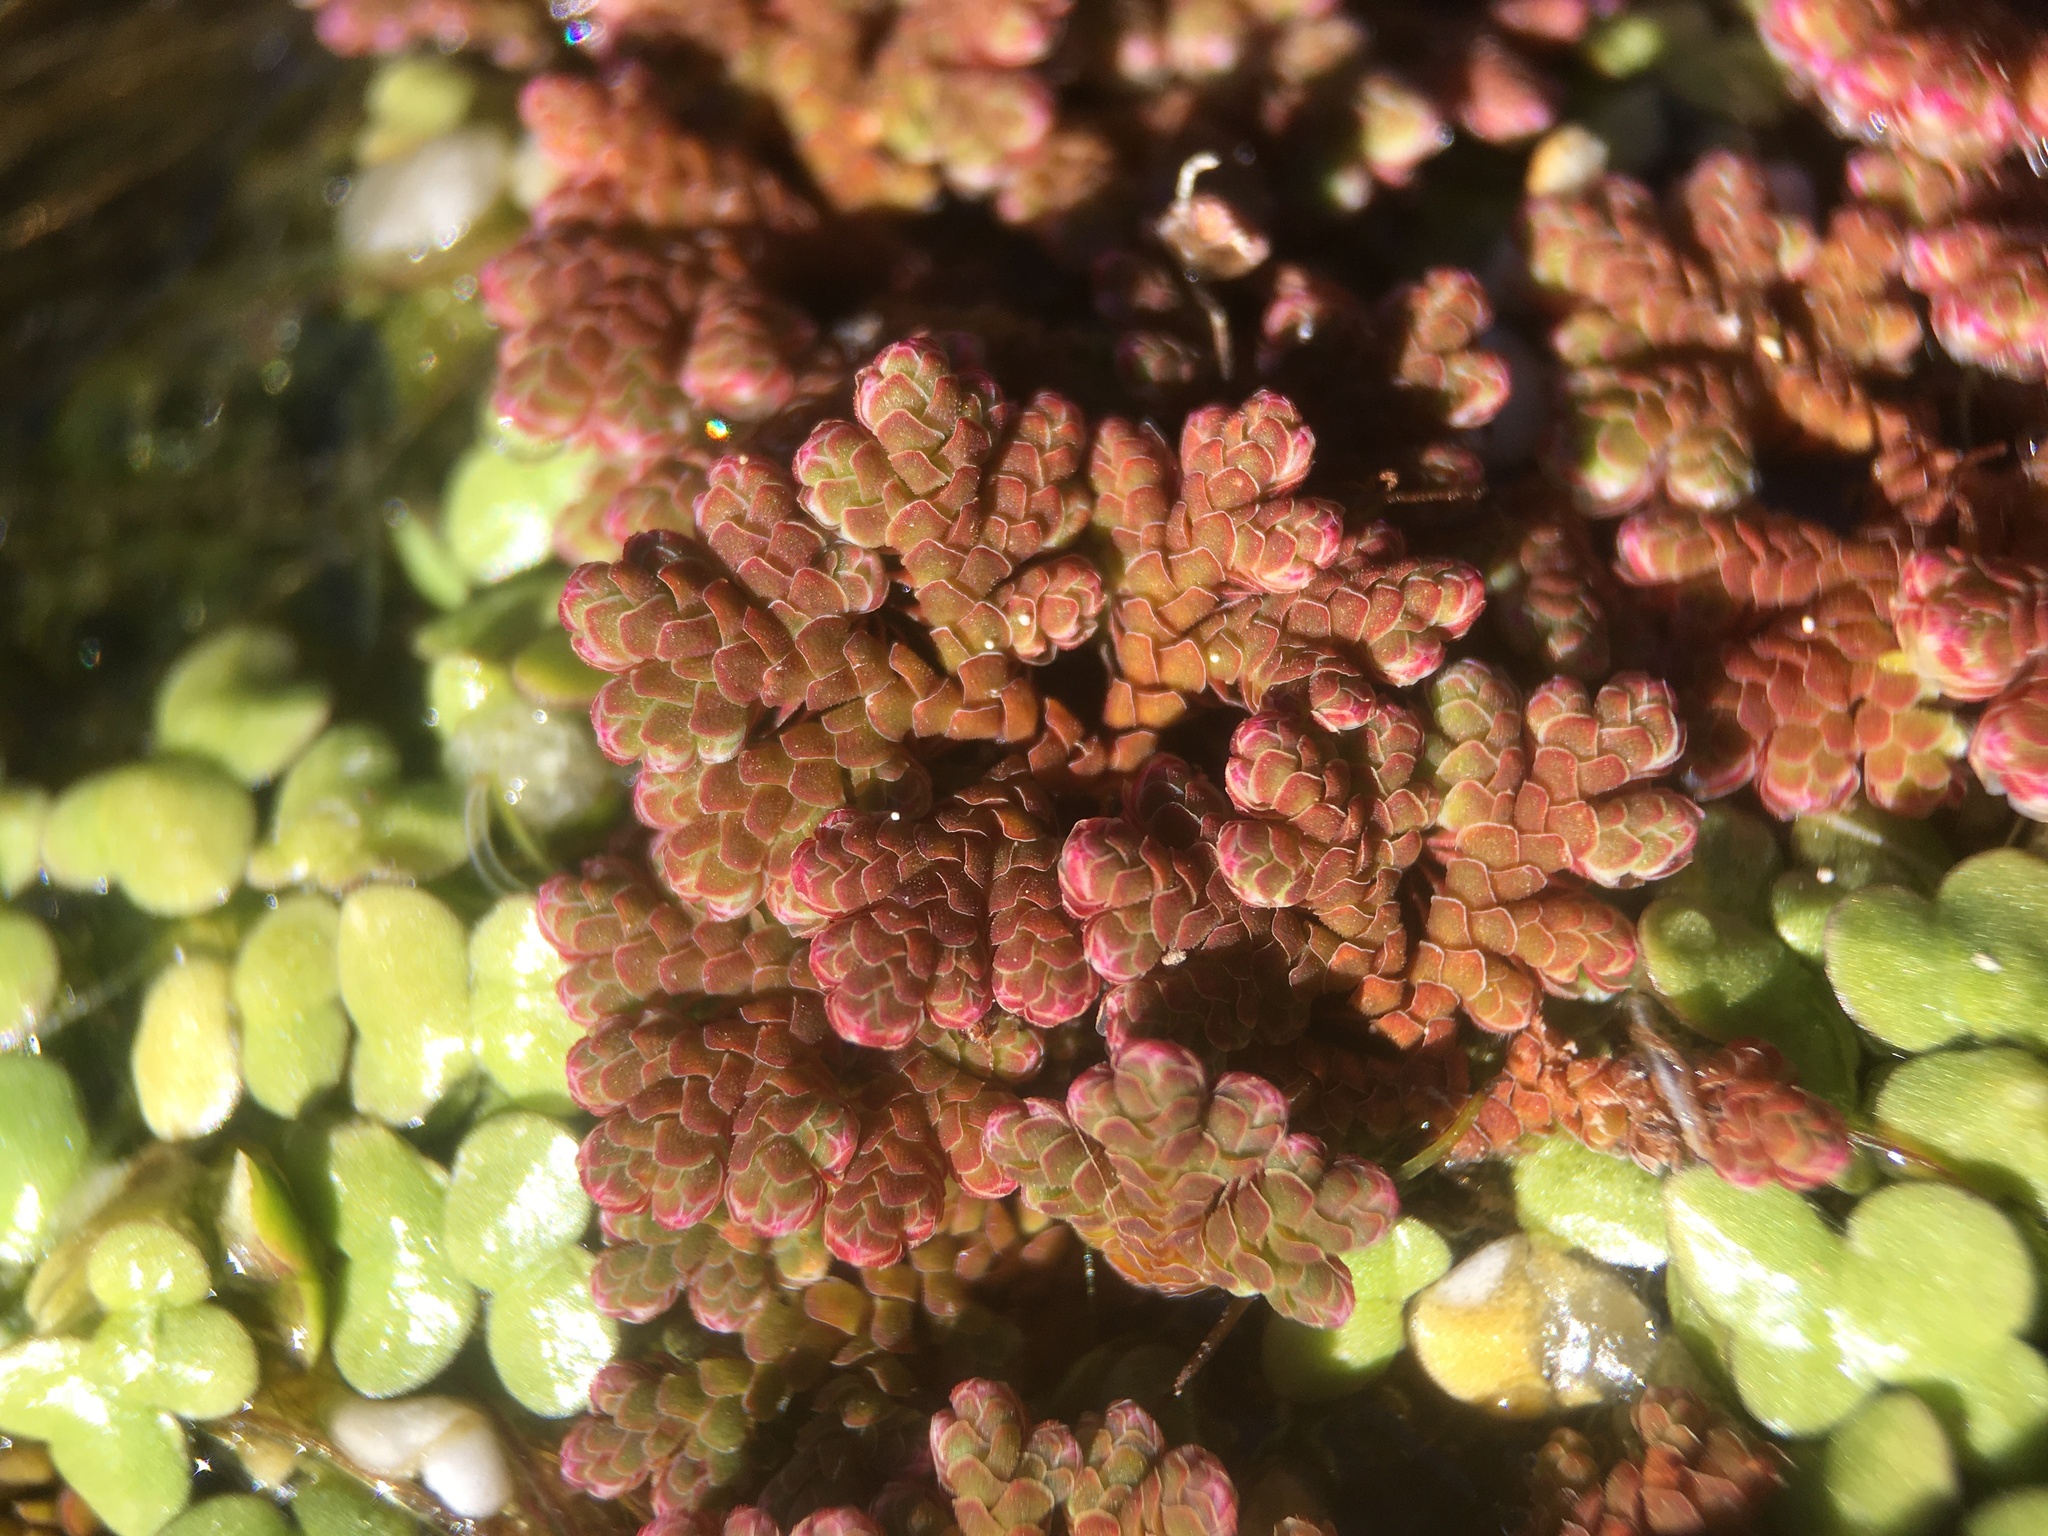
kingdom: Plantae
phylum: Tracheophyta
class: Polypodiopsida
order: Salviniales
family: Salviniaceae
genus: Azolla
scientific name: Azolla filiculoides
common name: Water fern
